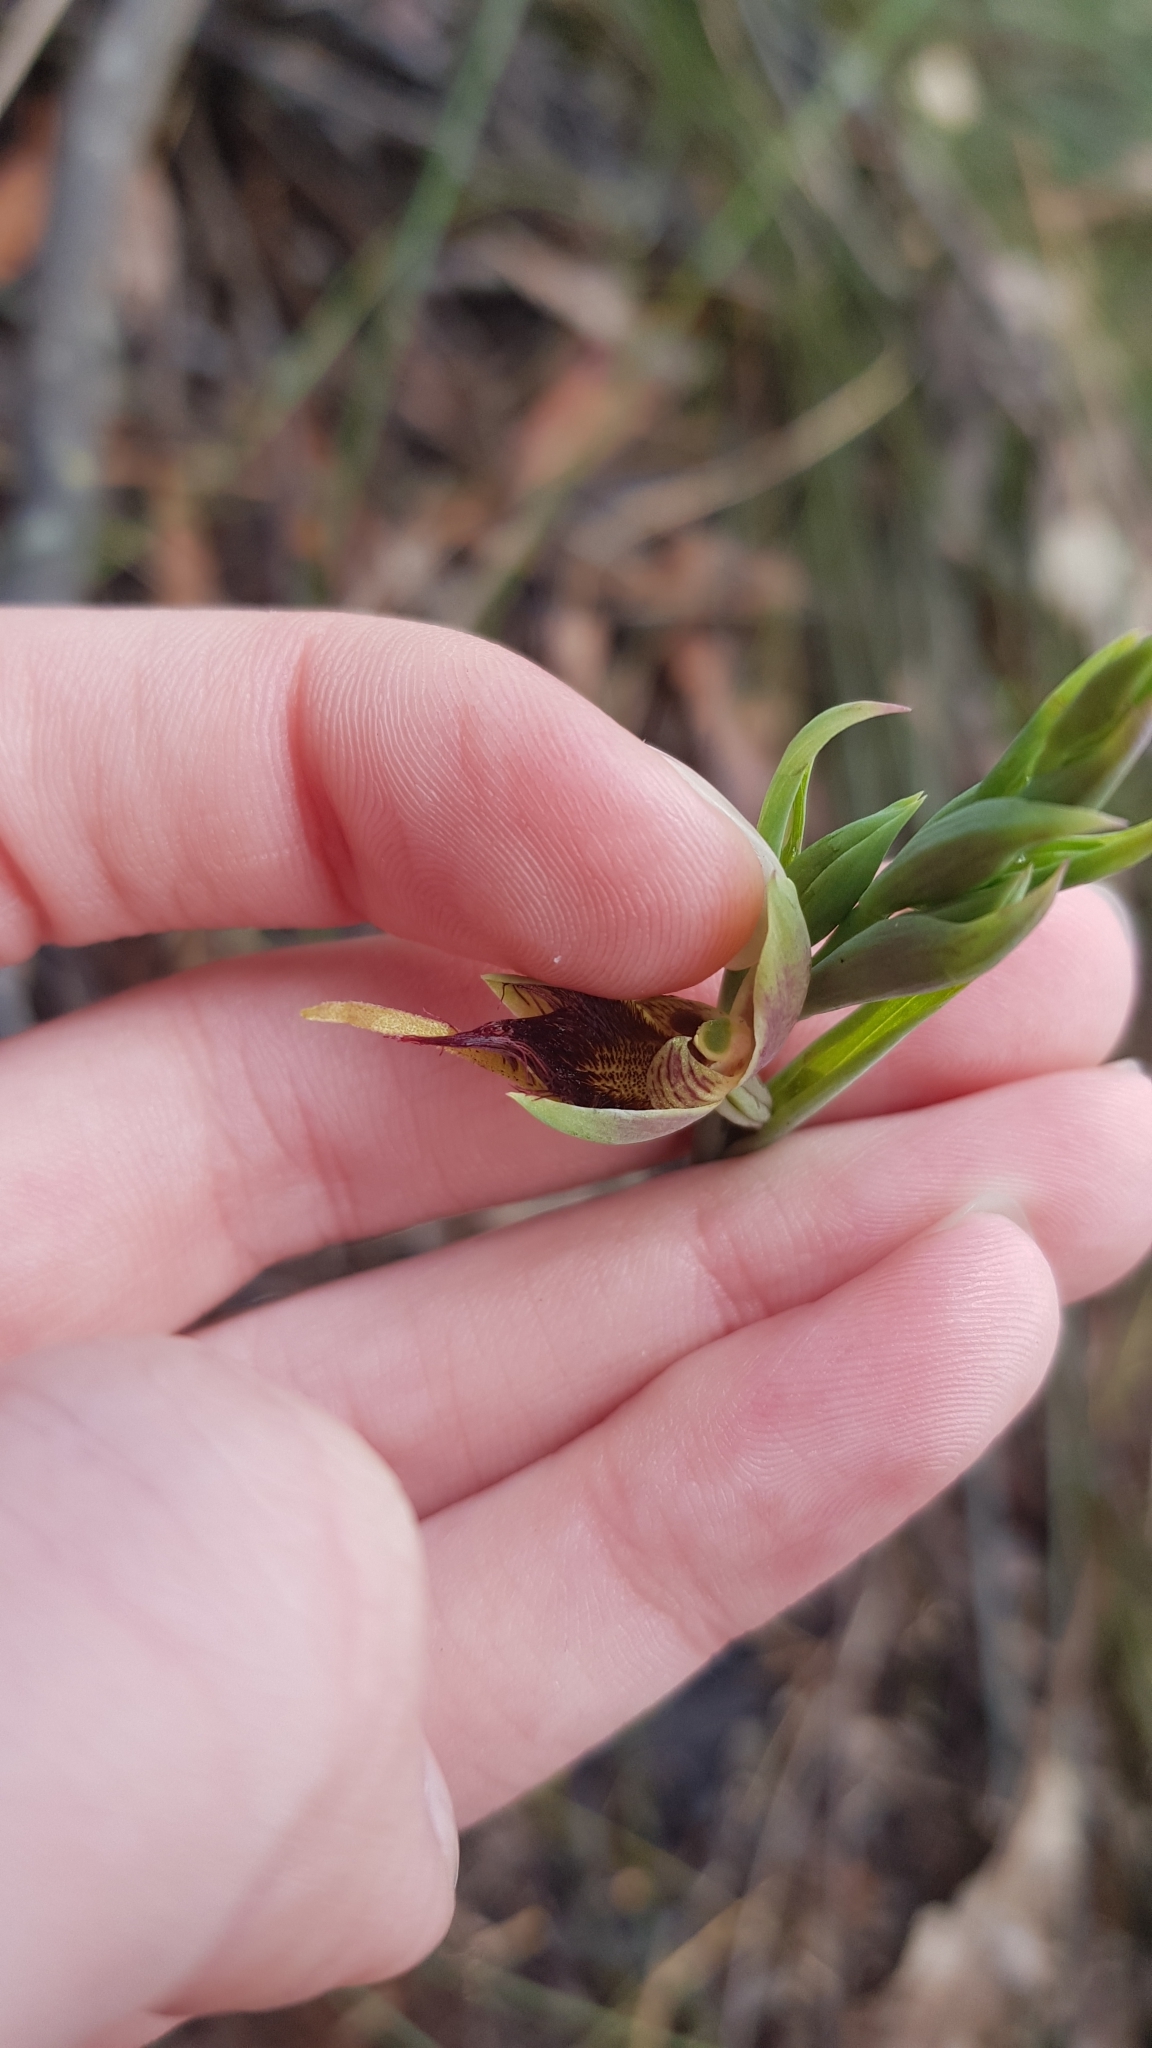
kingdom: Plantae
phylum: Tracheophyta
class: Liliopsida
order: Asparagales
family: Orchidaceae
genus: Calochilus
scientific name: Calochilus paludosus
